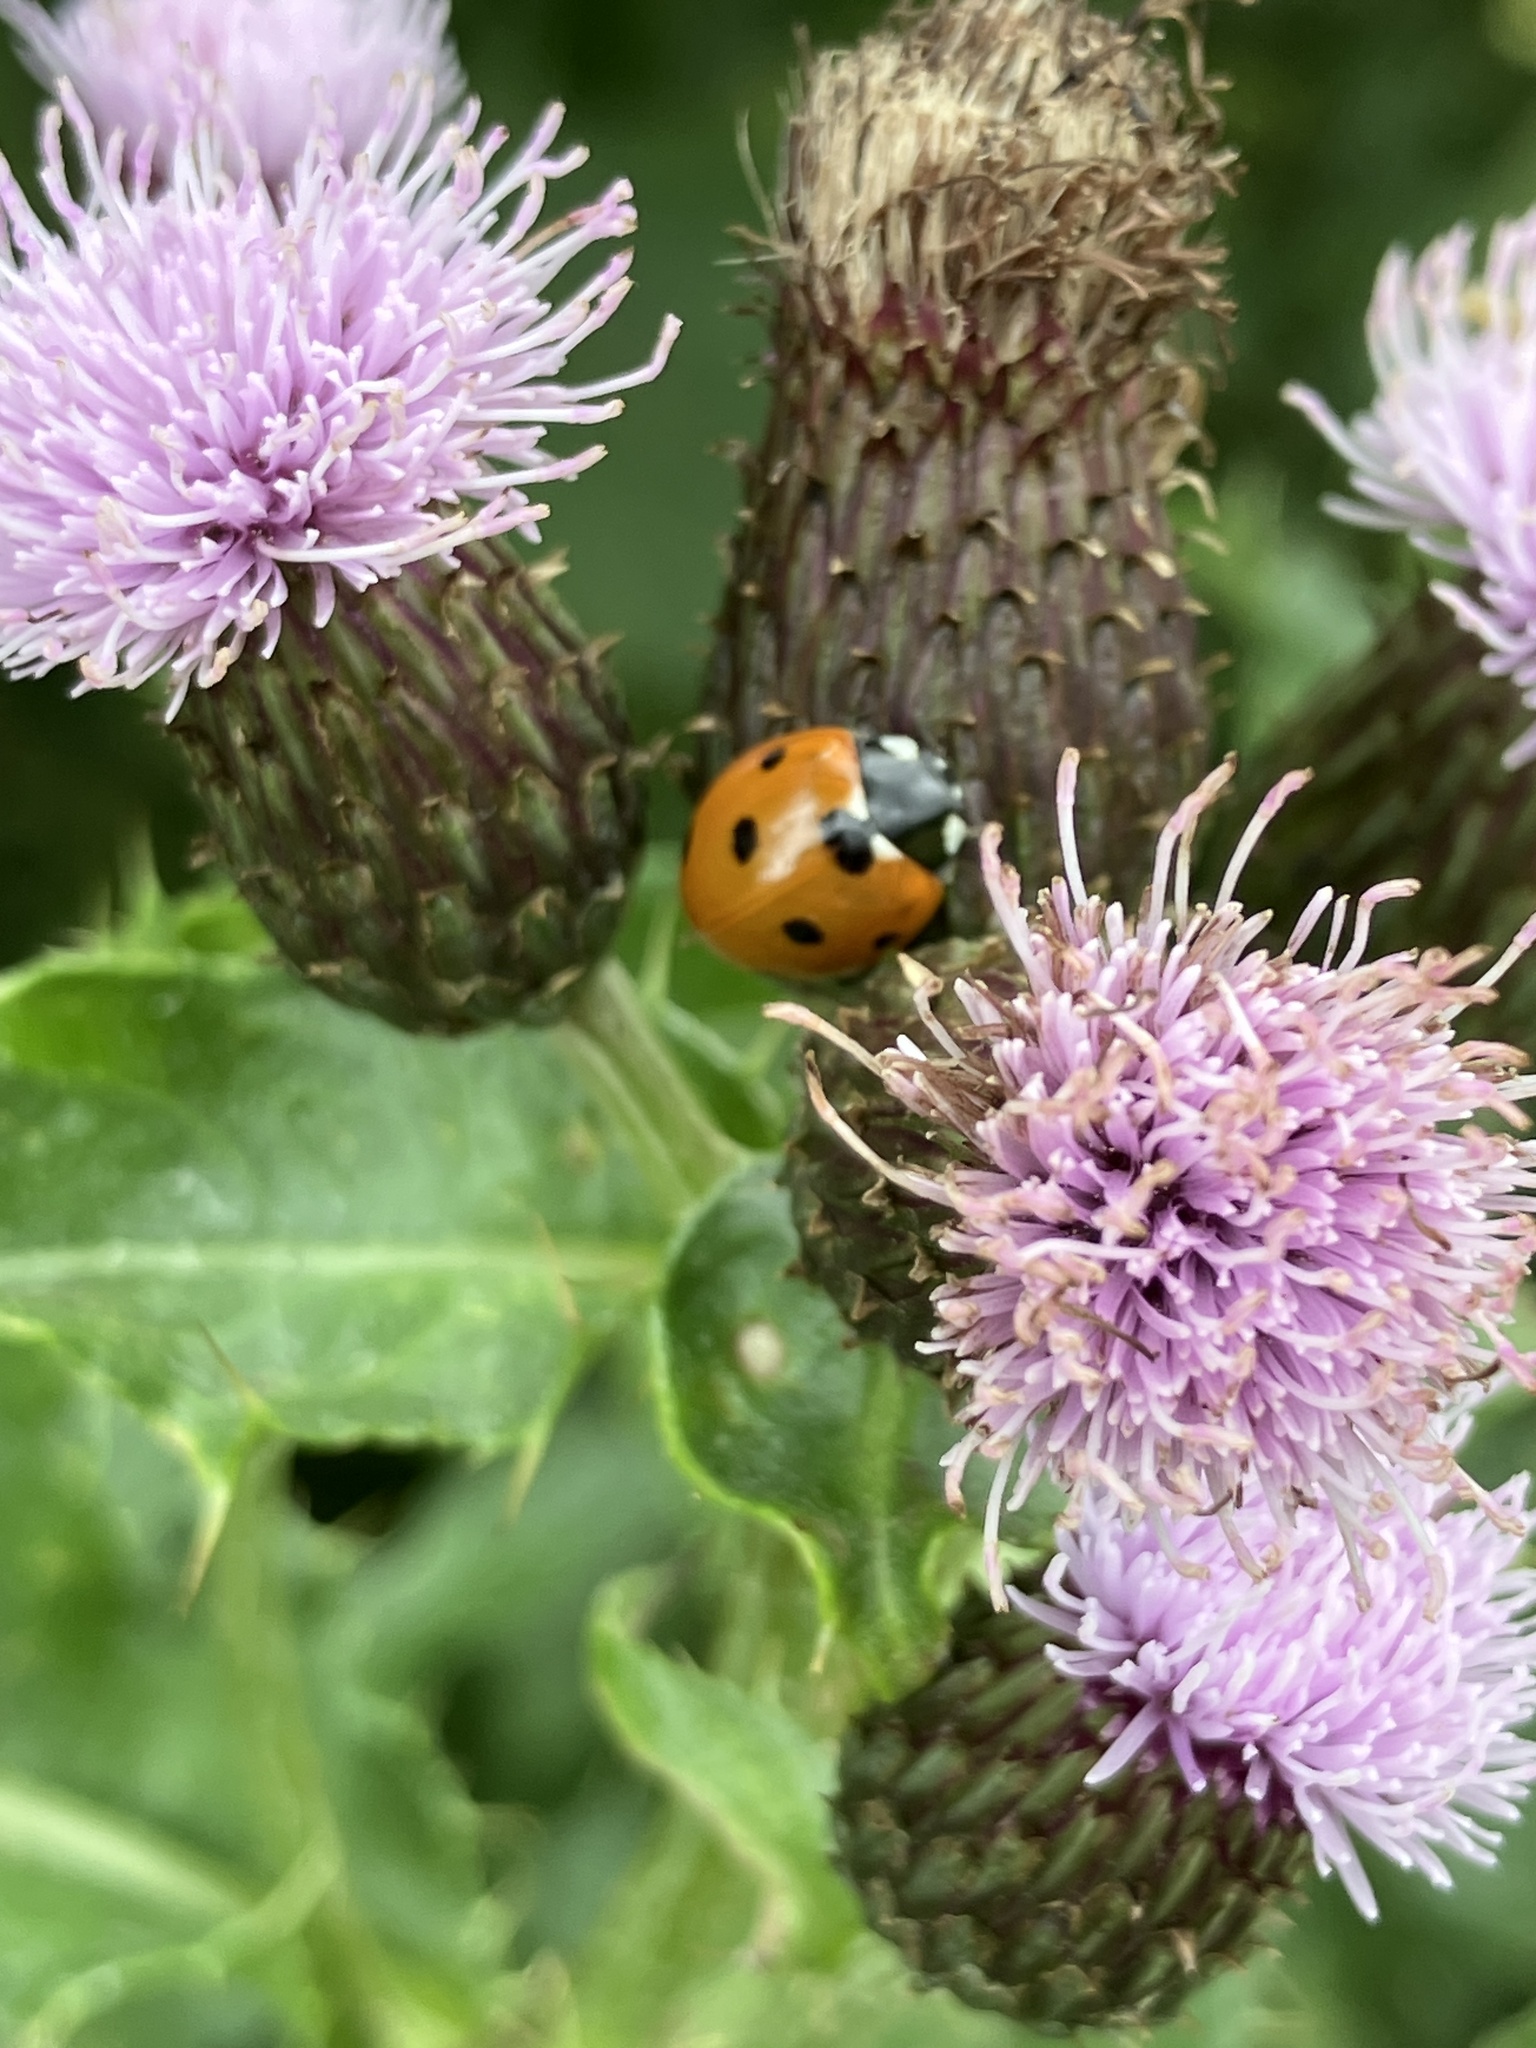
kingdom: Animalia
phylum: Arthropoda
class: Insecta
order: Coleoptera
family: Coccinellidae
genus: Coccinella
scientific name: Coccinella septempunctata
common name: Sevenspotted lady beetle
